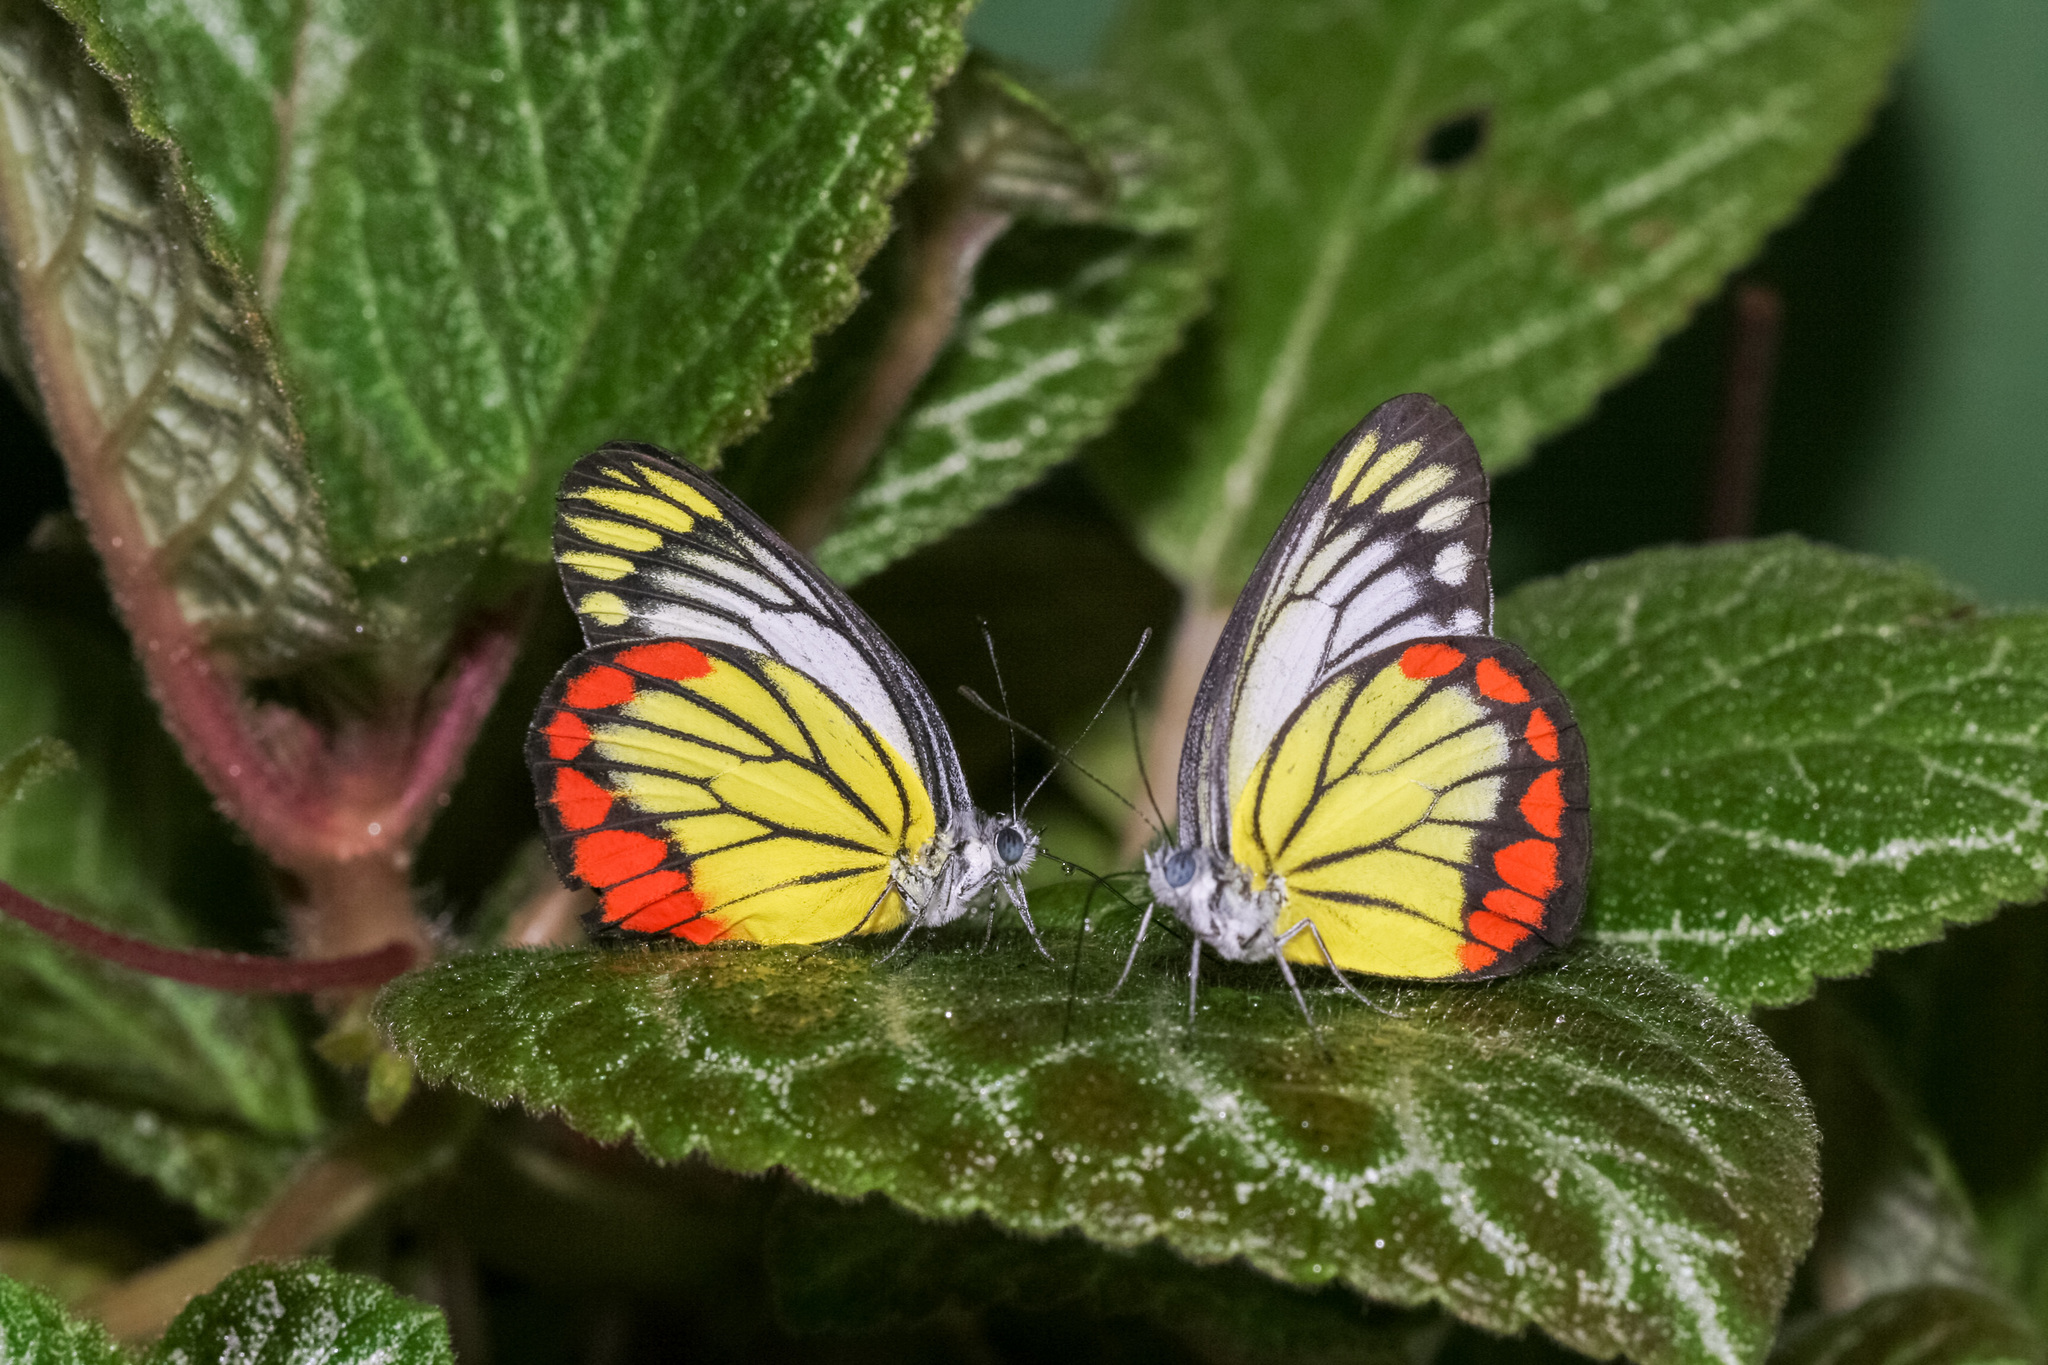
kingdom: Animalia
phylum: Arthropoda
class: Insecta
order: Lepidoptera
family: Pieridae
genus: Delias
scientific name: Delias hyparete
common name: Painted jezebel
